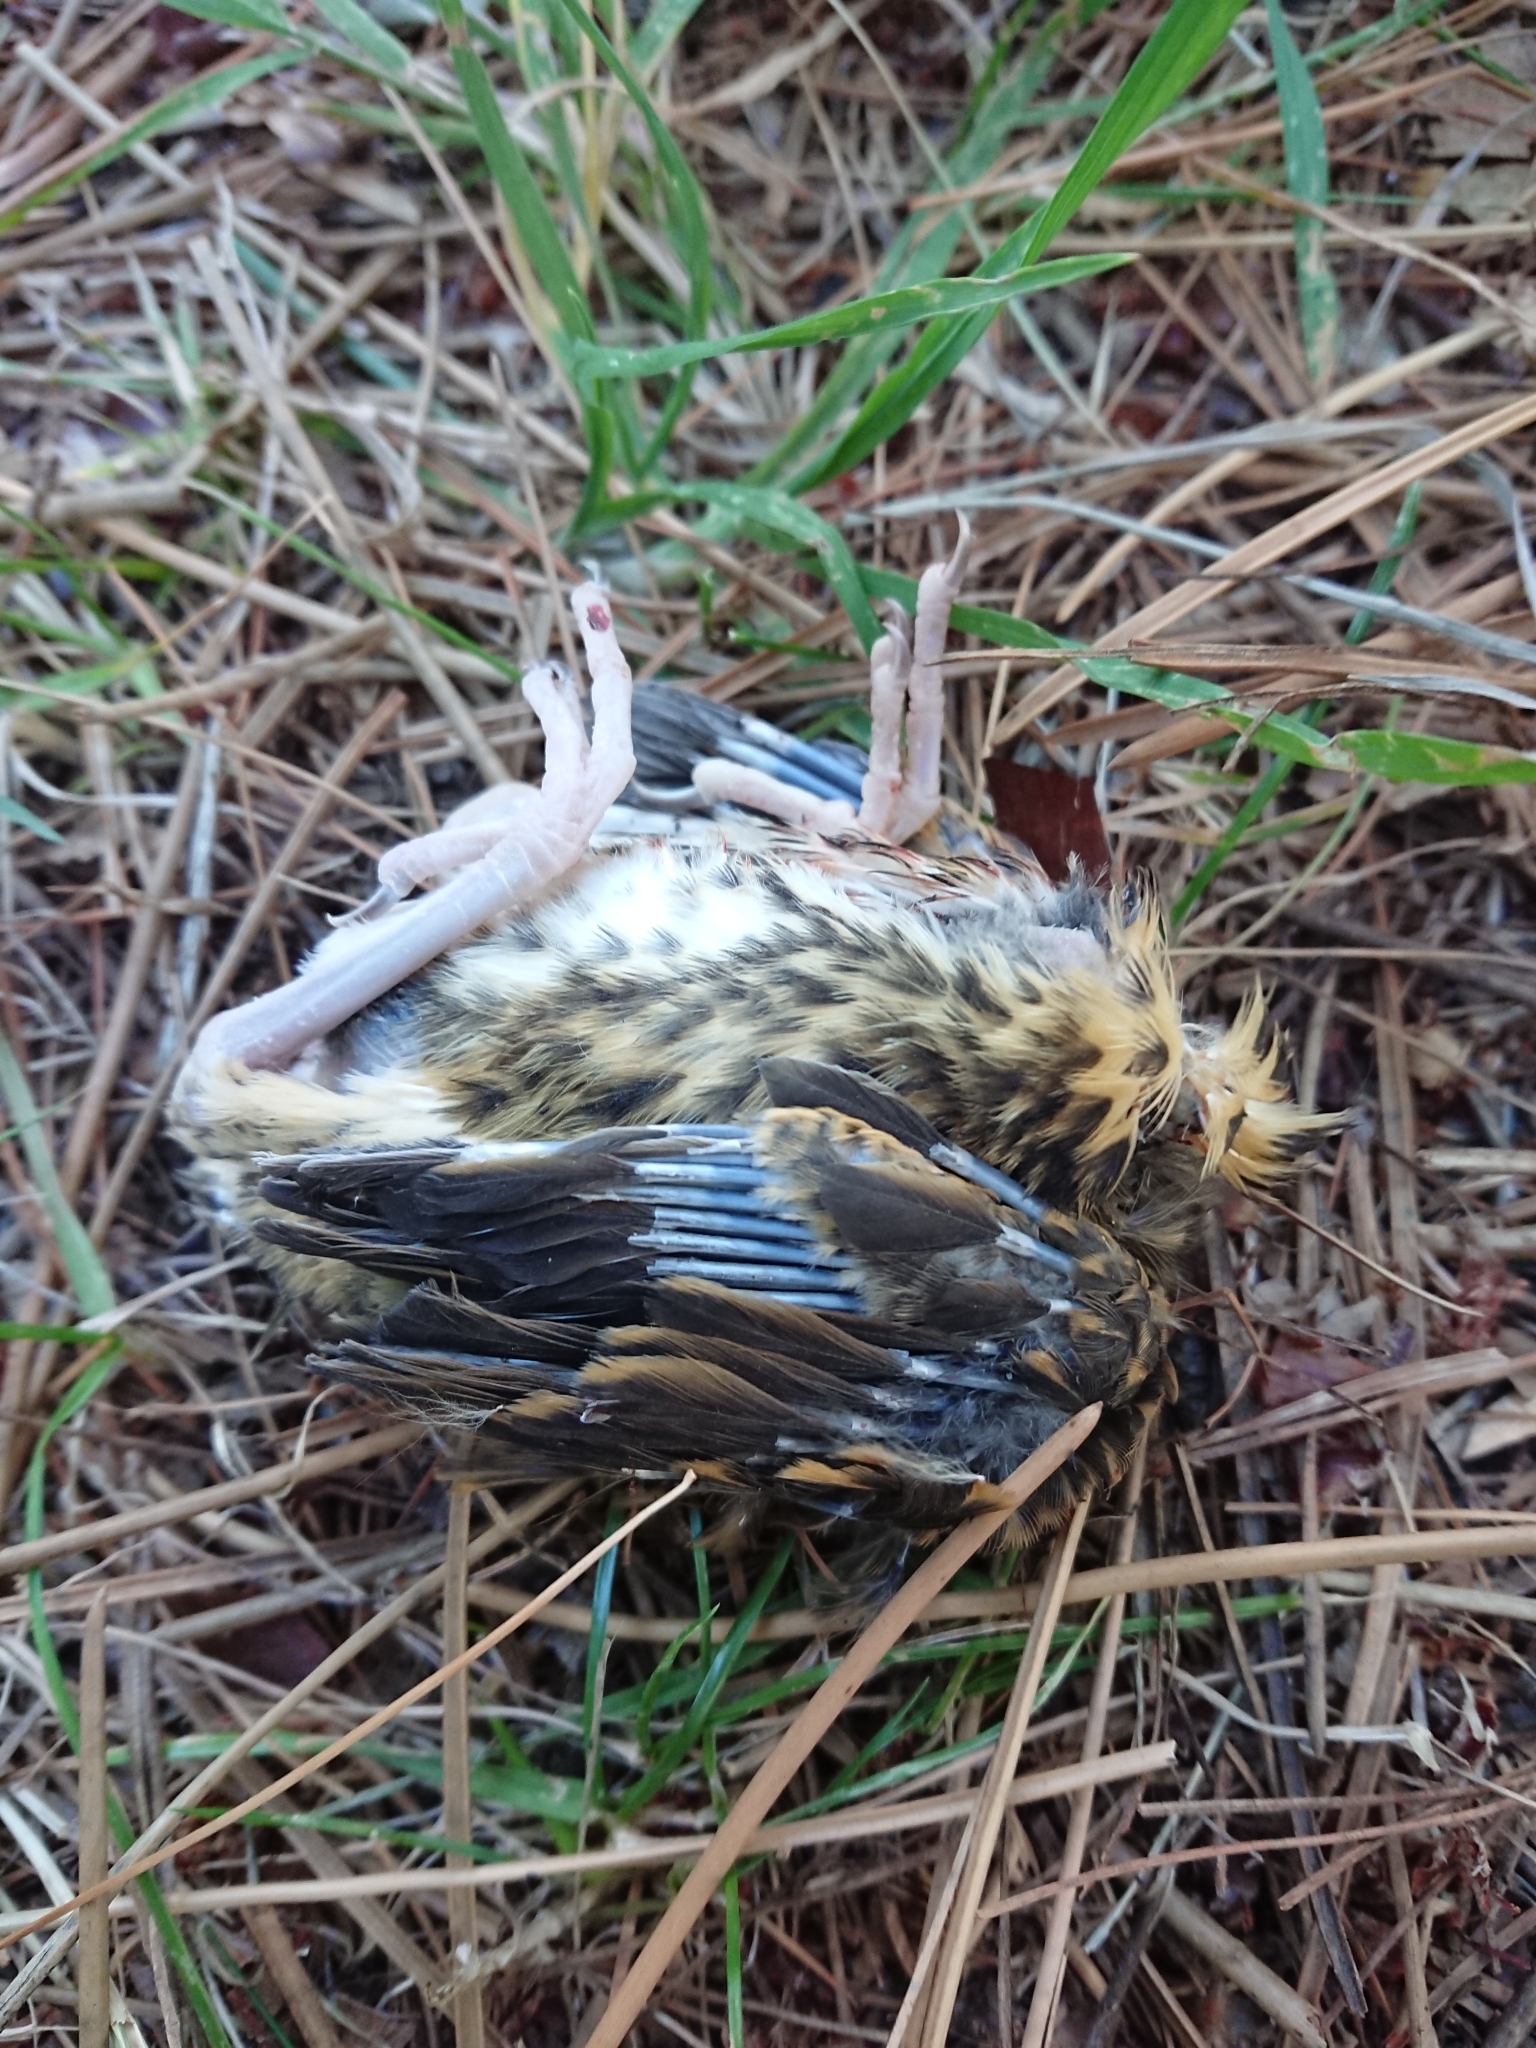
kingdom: Animalia
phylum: Chordata
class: Aves
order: Passeriformes
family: Turdidae
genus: Turdus
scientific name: Turdus philomelos
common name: Song thrush
